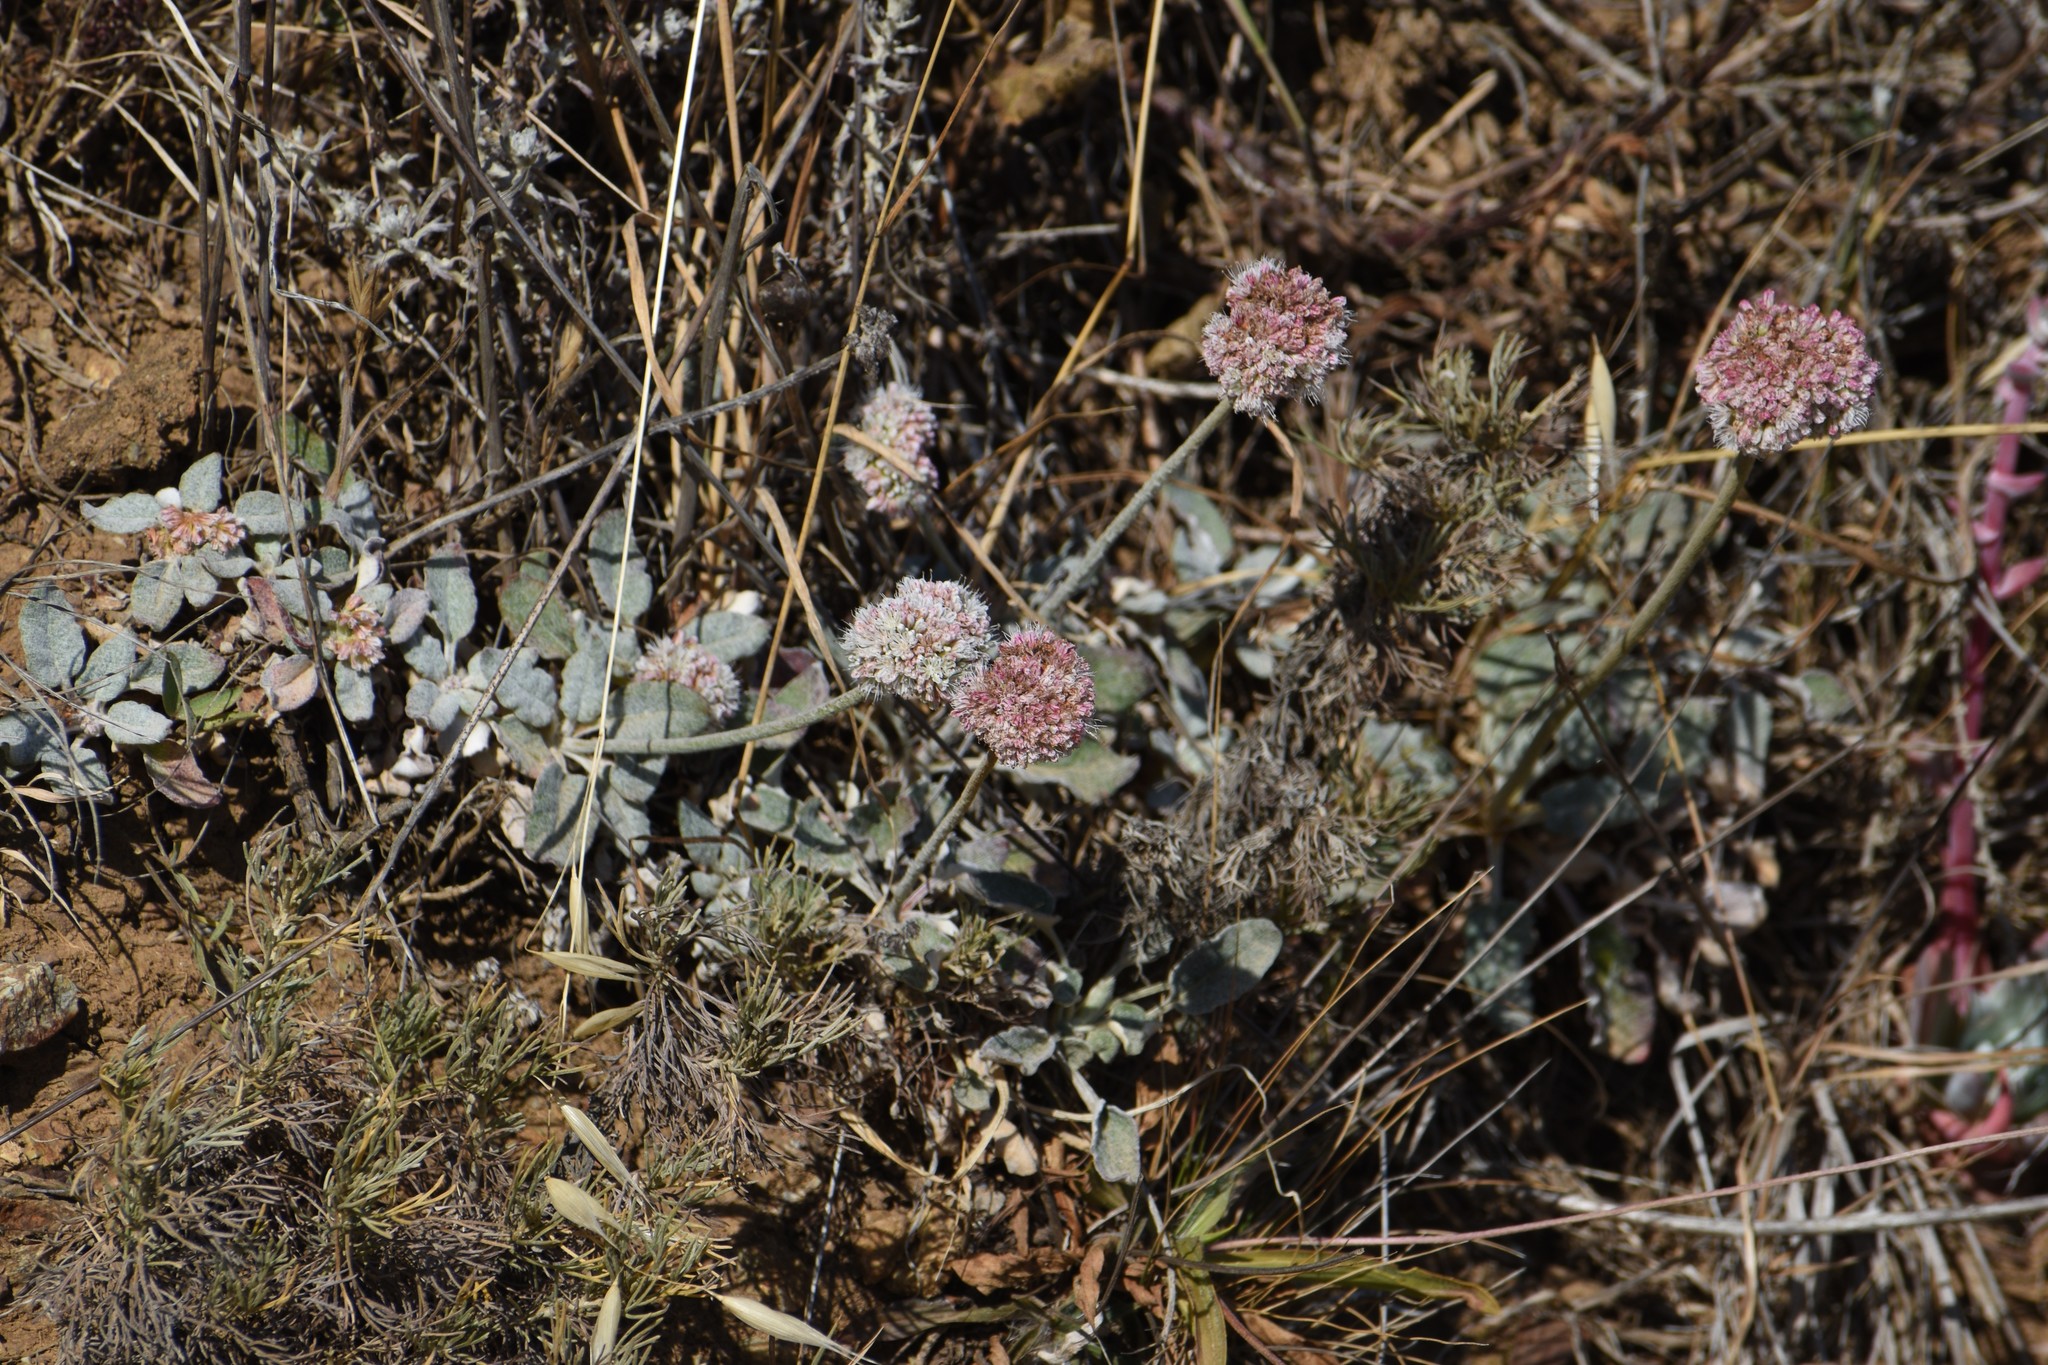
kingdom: Plantae
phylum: Tracheophyta
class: Magnoliopsida
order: Caryophyllales
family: Polygonaceae
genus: Eriogonum
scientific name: Eriogonum latifolium
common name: Seaside wild buckwheat
